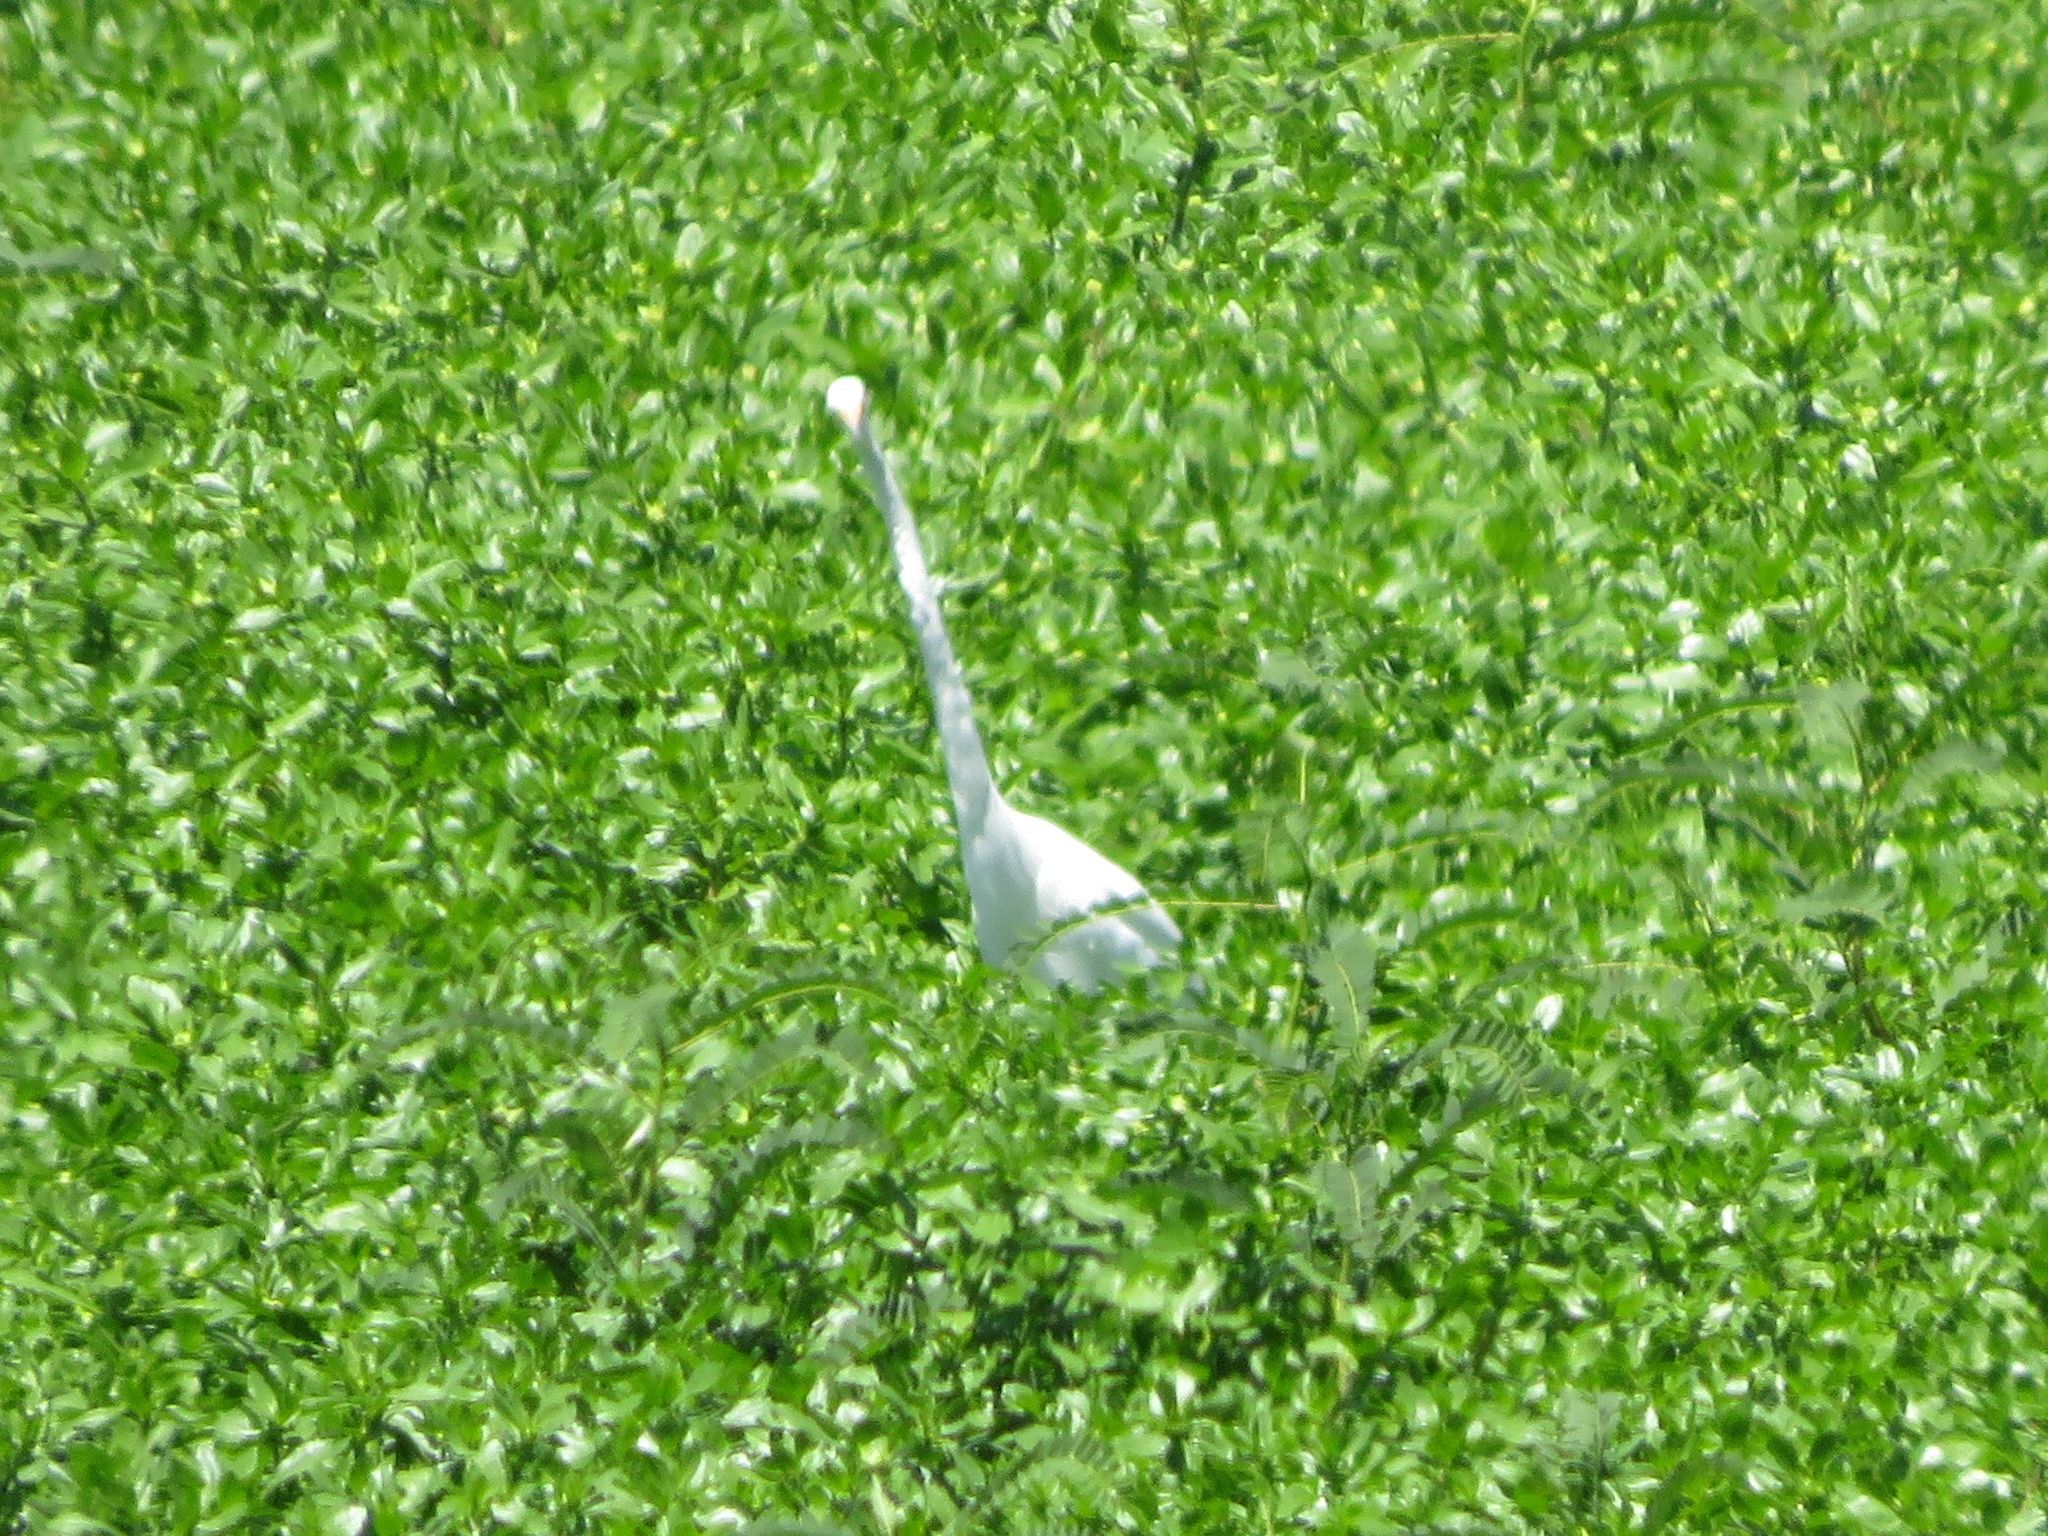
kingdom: Animalia
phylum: Chordata
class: Aves
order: Pelecaniformes
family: Ardeidae
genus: Ardea
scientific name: Ardea alba
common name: Great egret
